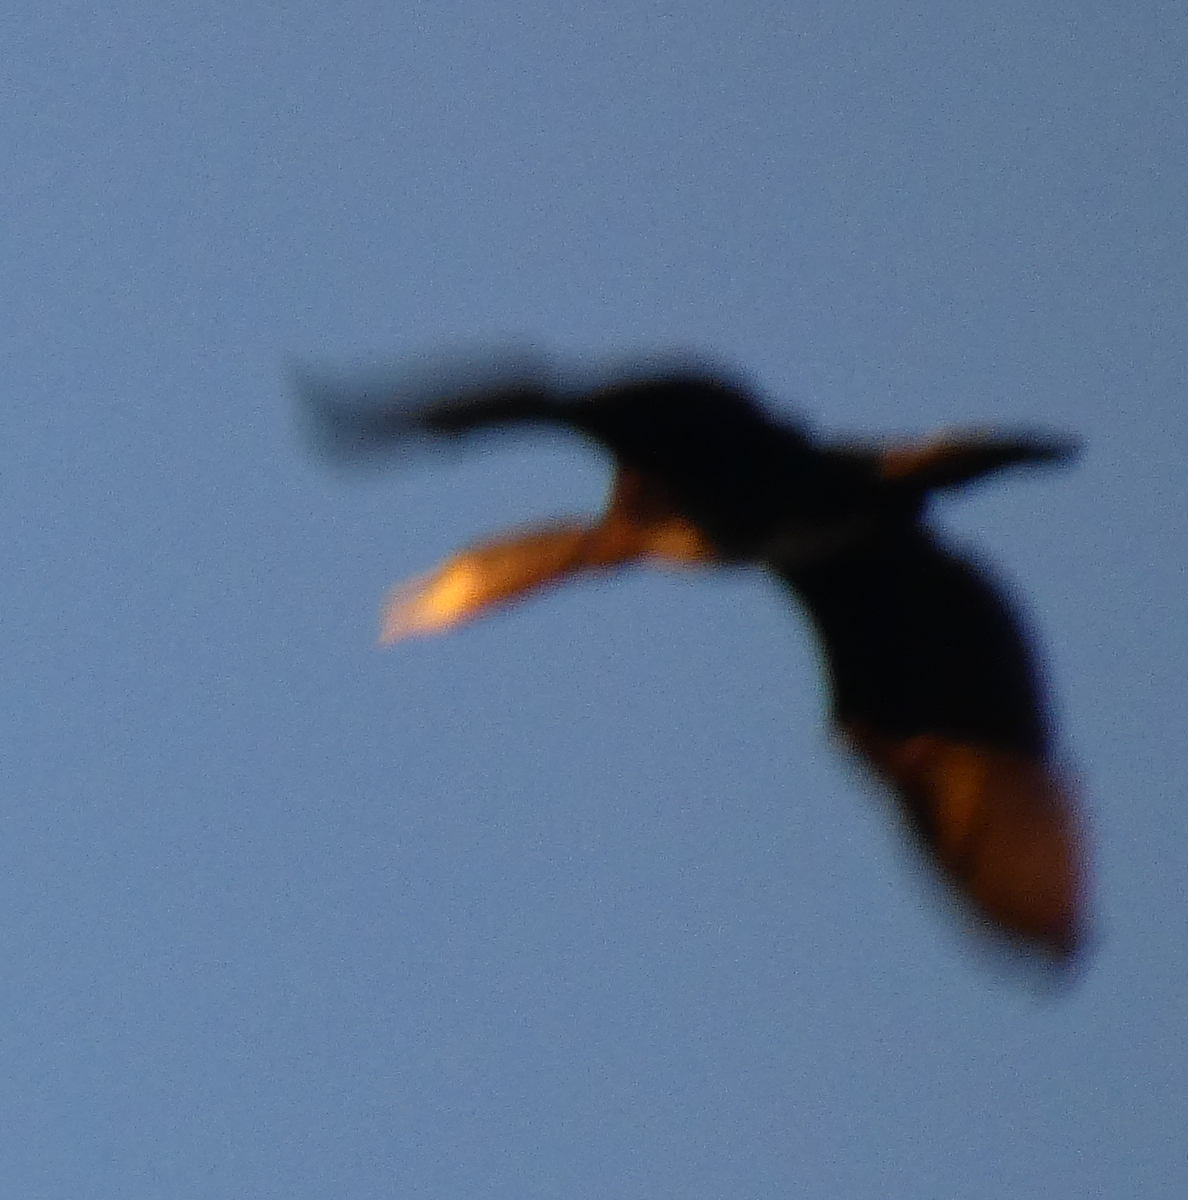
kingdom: Animalia
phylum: Chordata
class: Aves
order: Suliformes
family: Phalacrocoracidae
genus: Phalacrocorax
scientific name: Phalacrocorax carbo
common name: Great cormorant
